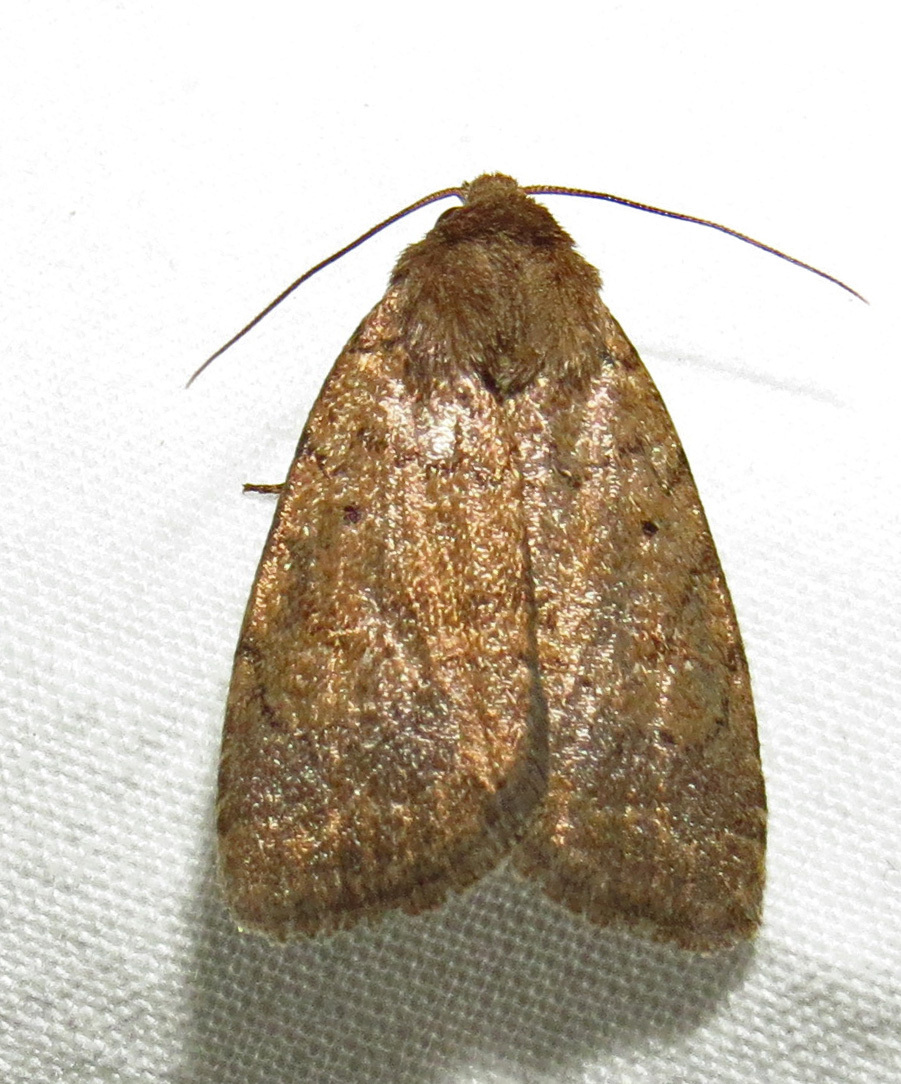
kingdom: Animalia
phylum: Arthropoda
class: Insecta
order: Lepidoptera
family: Noctuidae
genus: Athetis
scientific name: Athetis tarda
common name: Slowpoke moth
